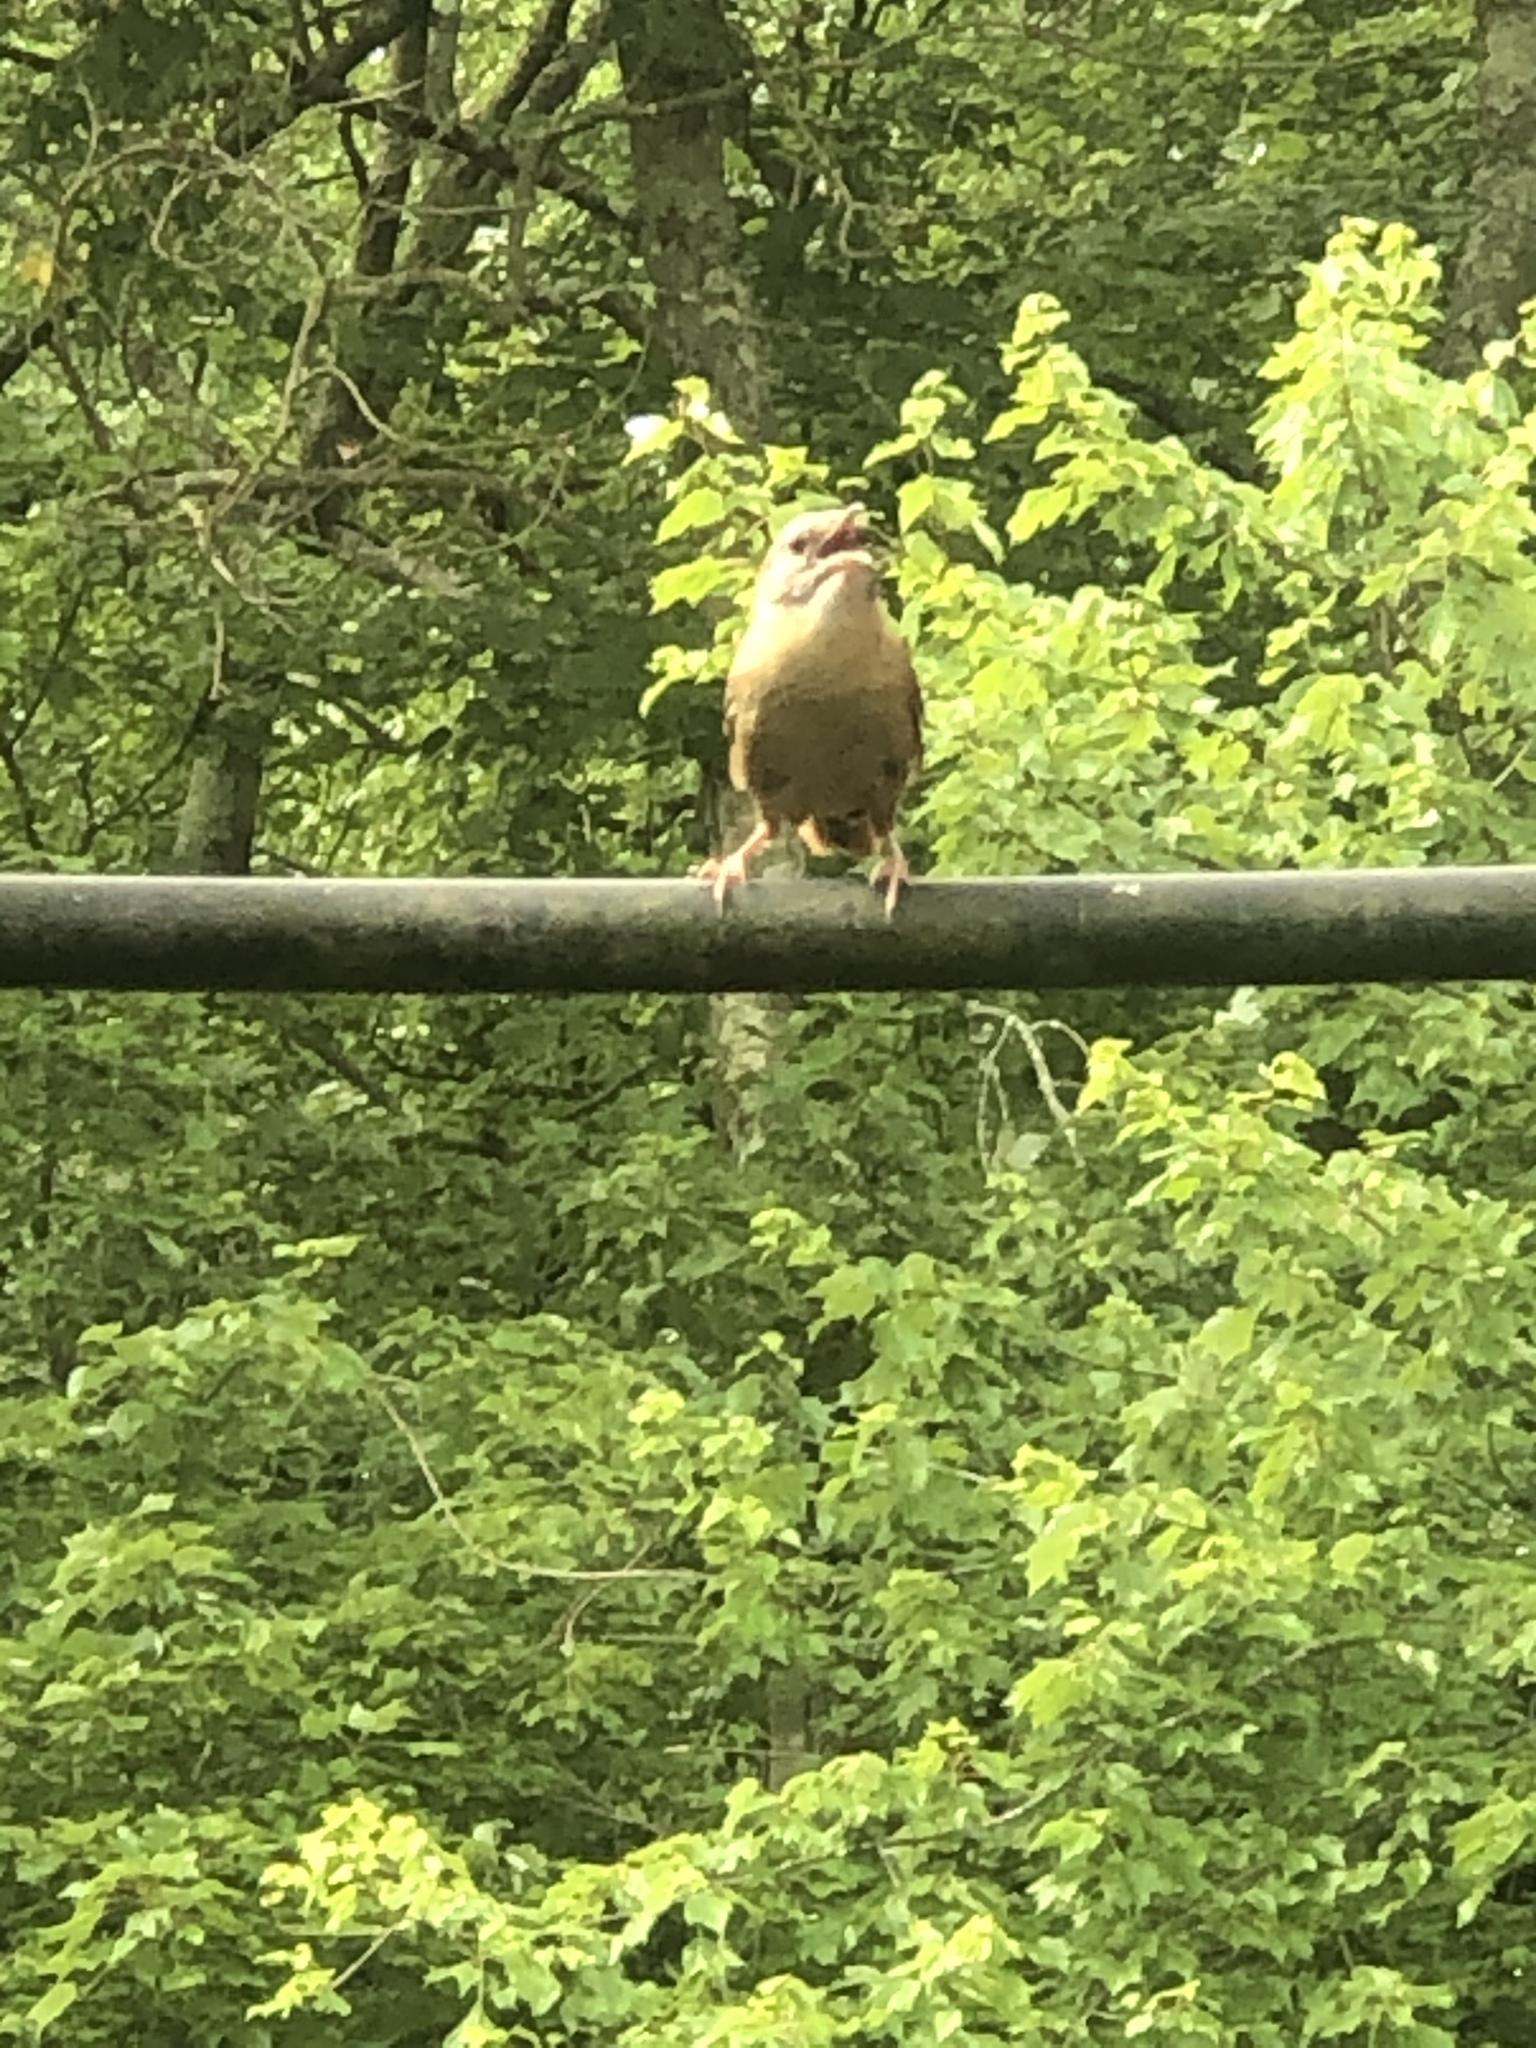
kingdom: Animalia
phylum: Chordata
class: Aves
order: Passeriformes
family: Troglodytidae
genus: Thryothorus
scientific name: Thryothorus ludovicianus
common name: Carolina wren
